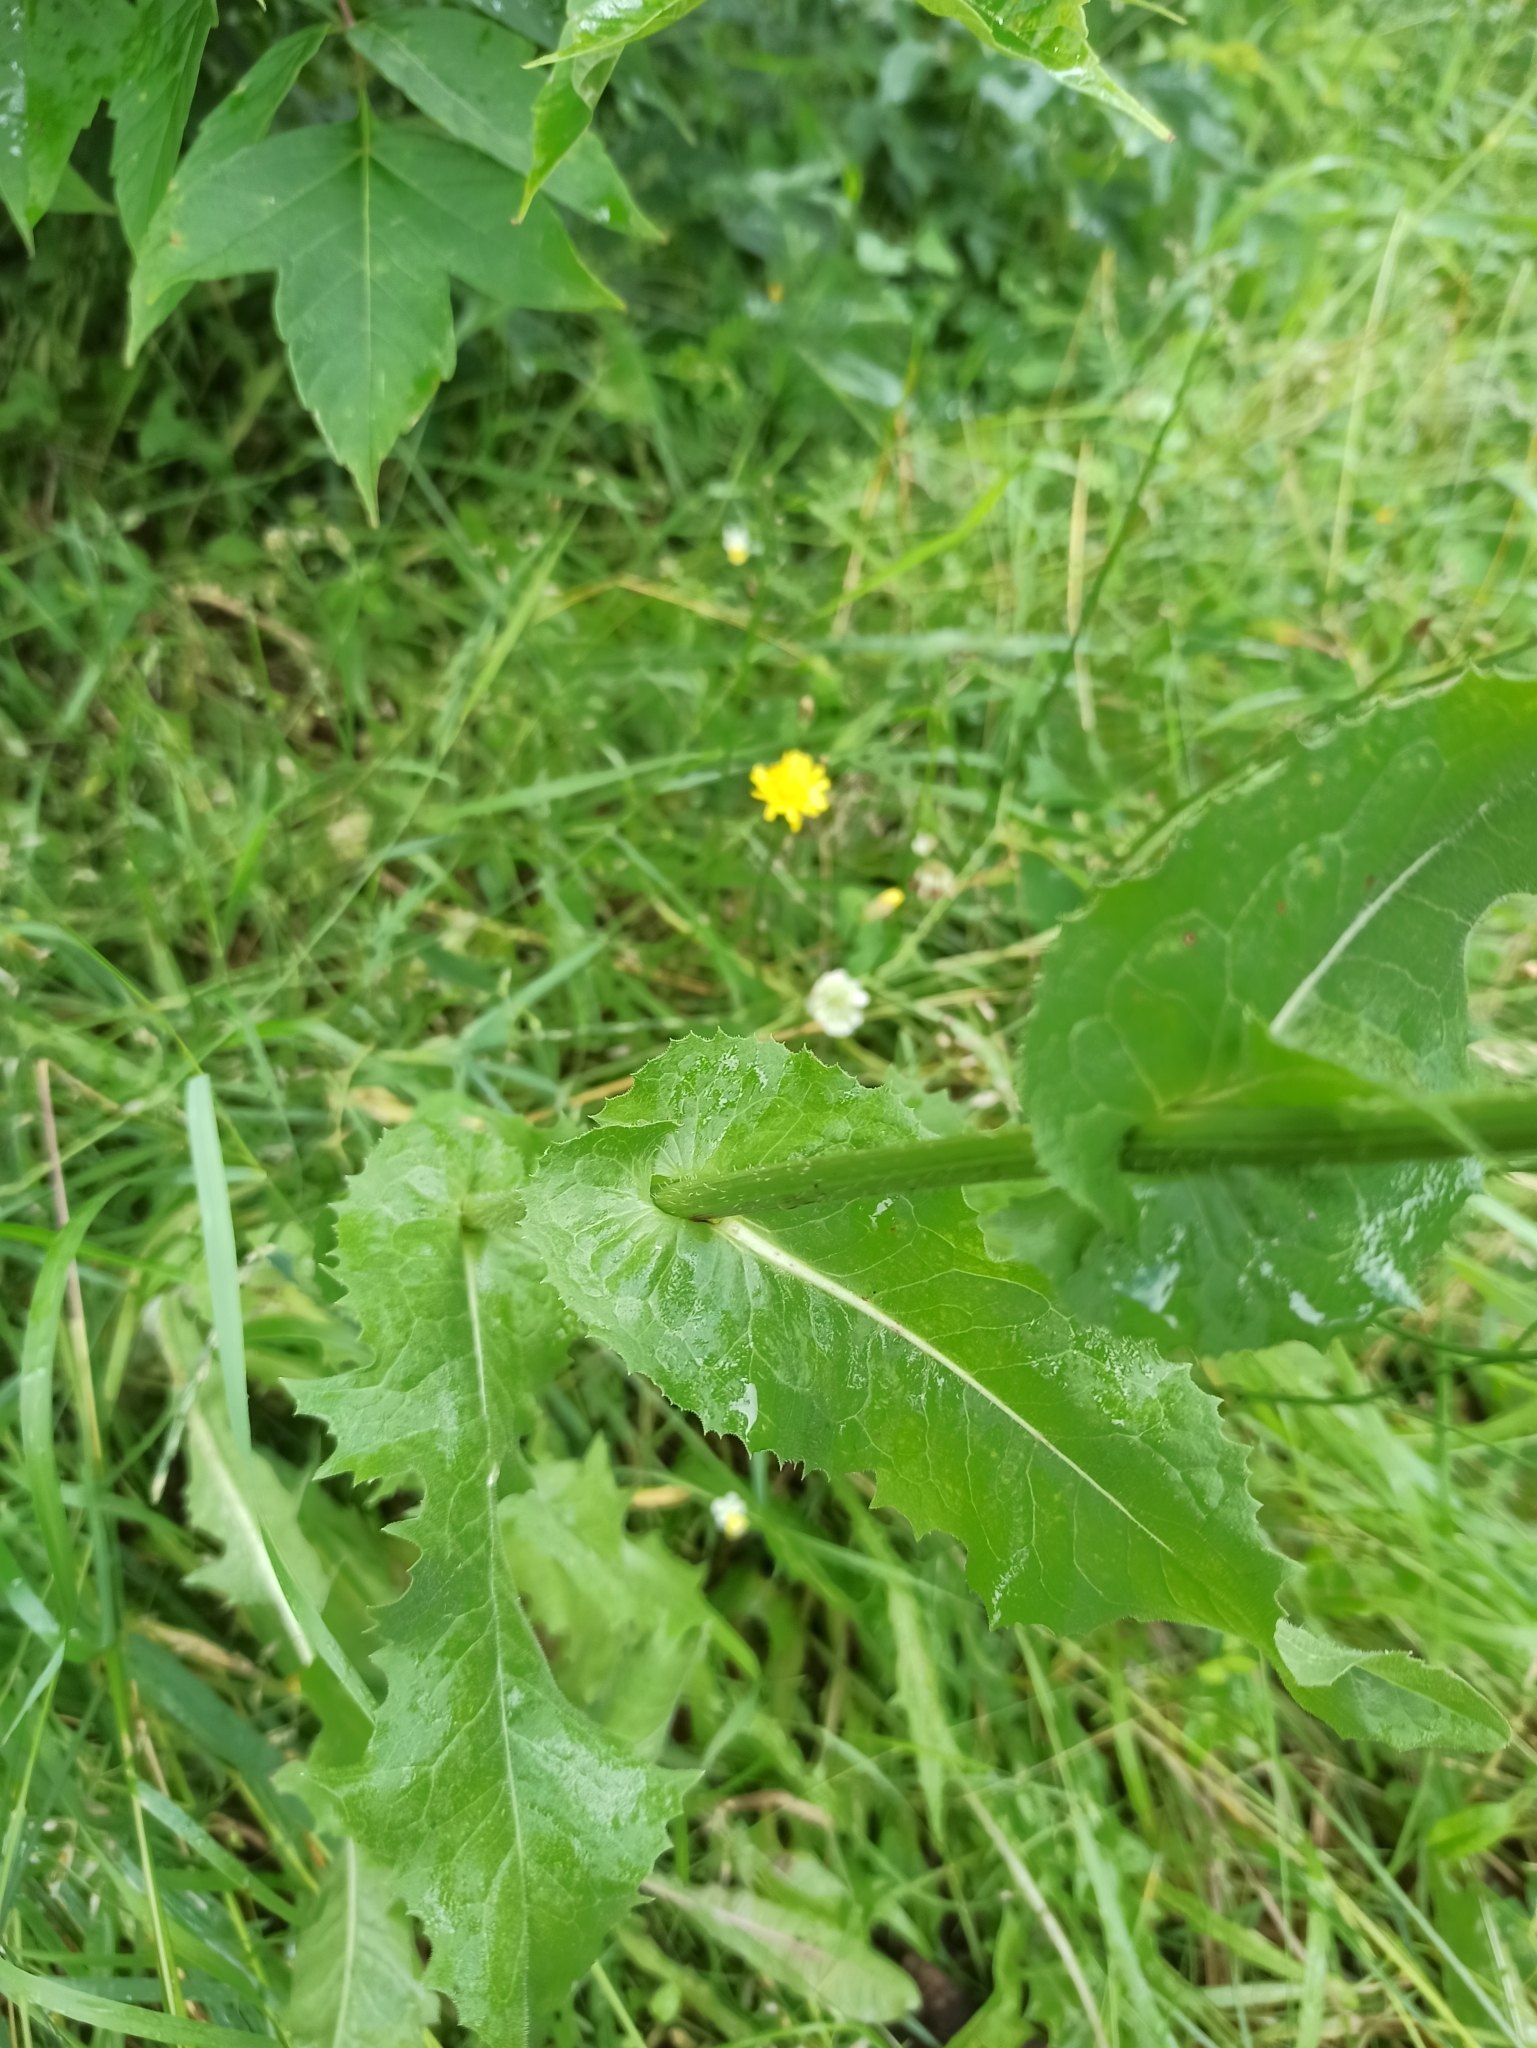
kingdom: Plantae
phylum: Tracheophyta
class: Magnoliopsida
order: Asterales
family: Asteraceae
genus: Cichorium
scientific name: Cichorium intybus
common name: Chicory
